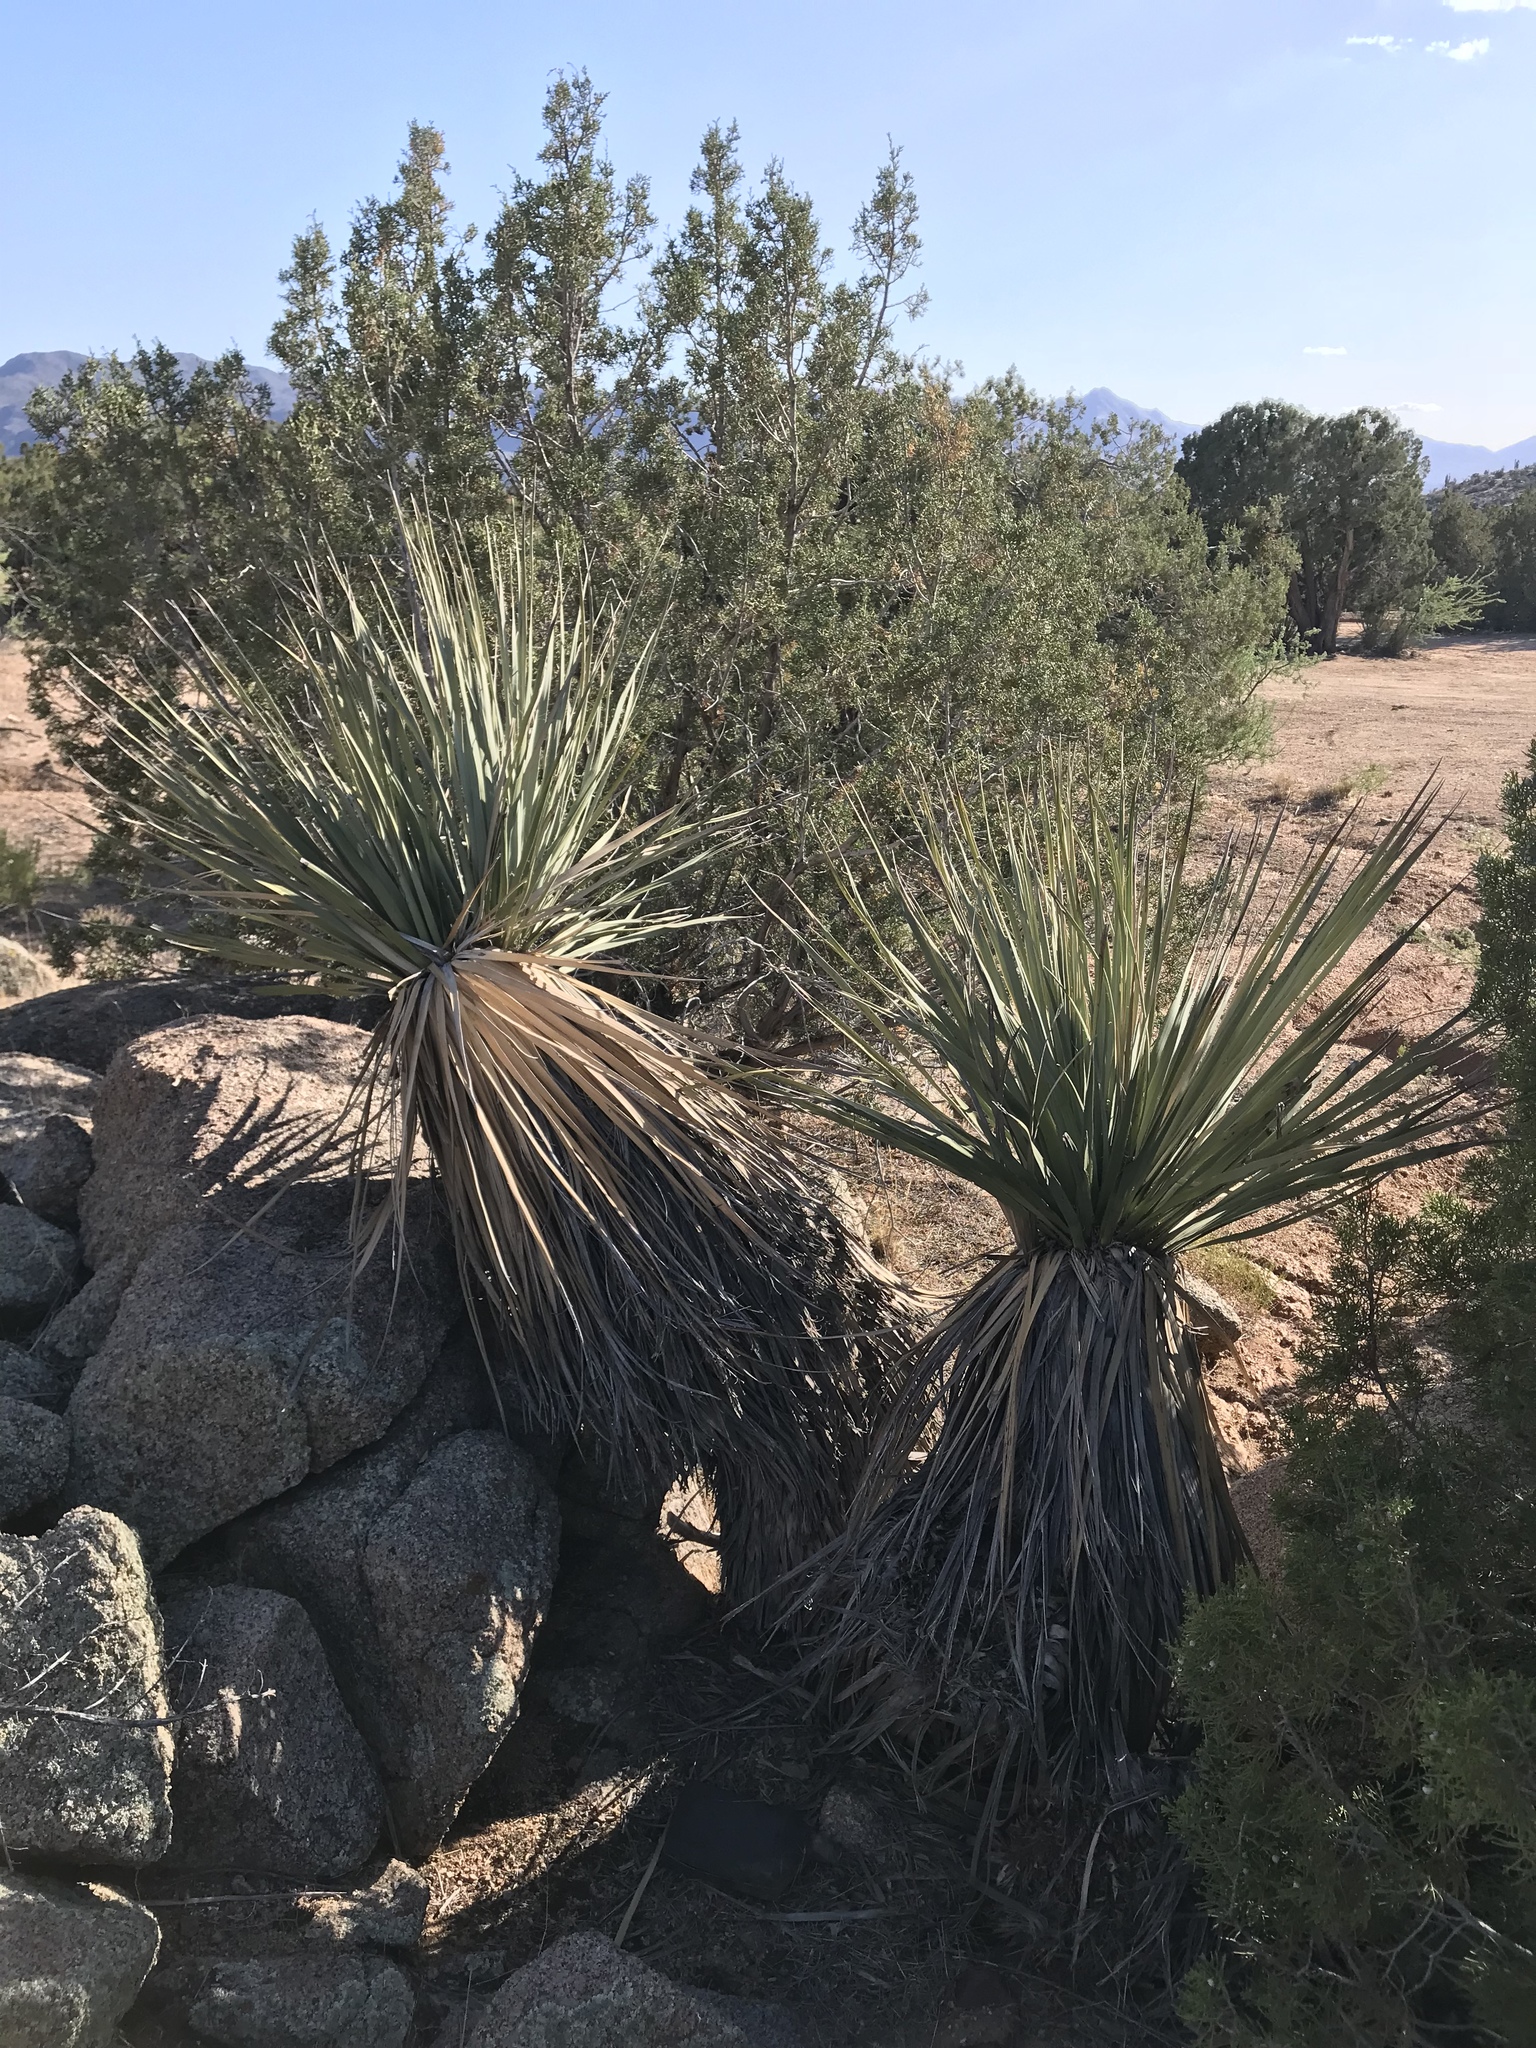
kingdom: Plantae
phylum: Tracheophyta
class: Liliopsida
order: Asparagales
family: Asparagaceae
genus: Nolina
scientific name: Nolina bigelovii
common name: Bigelow bear-grass
